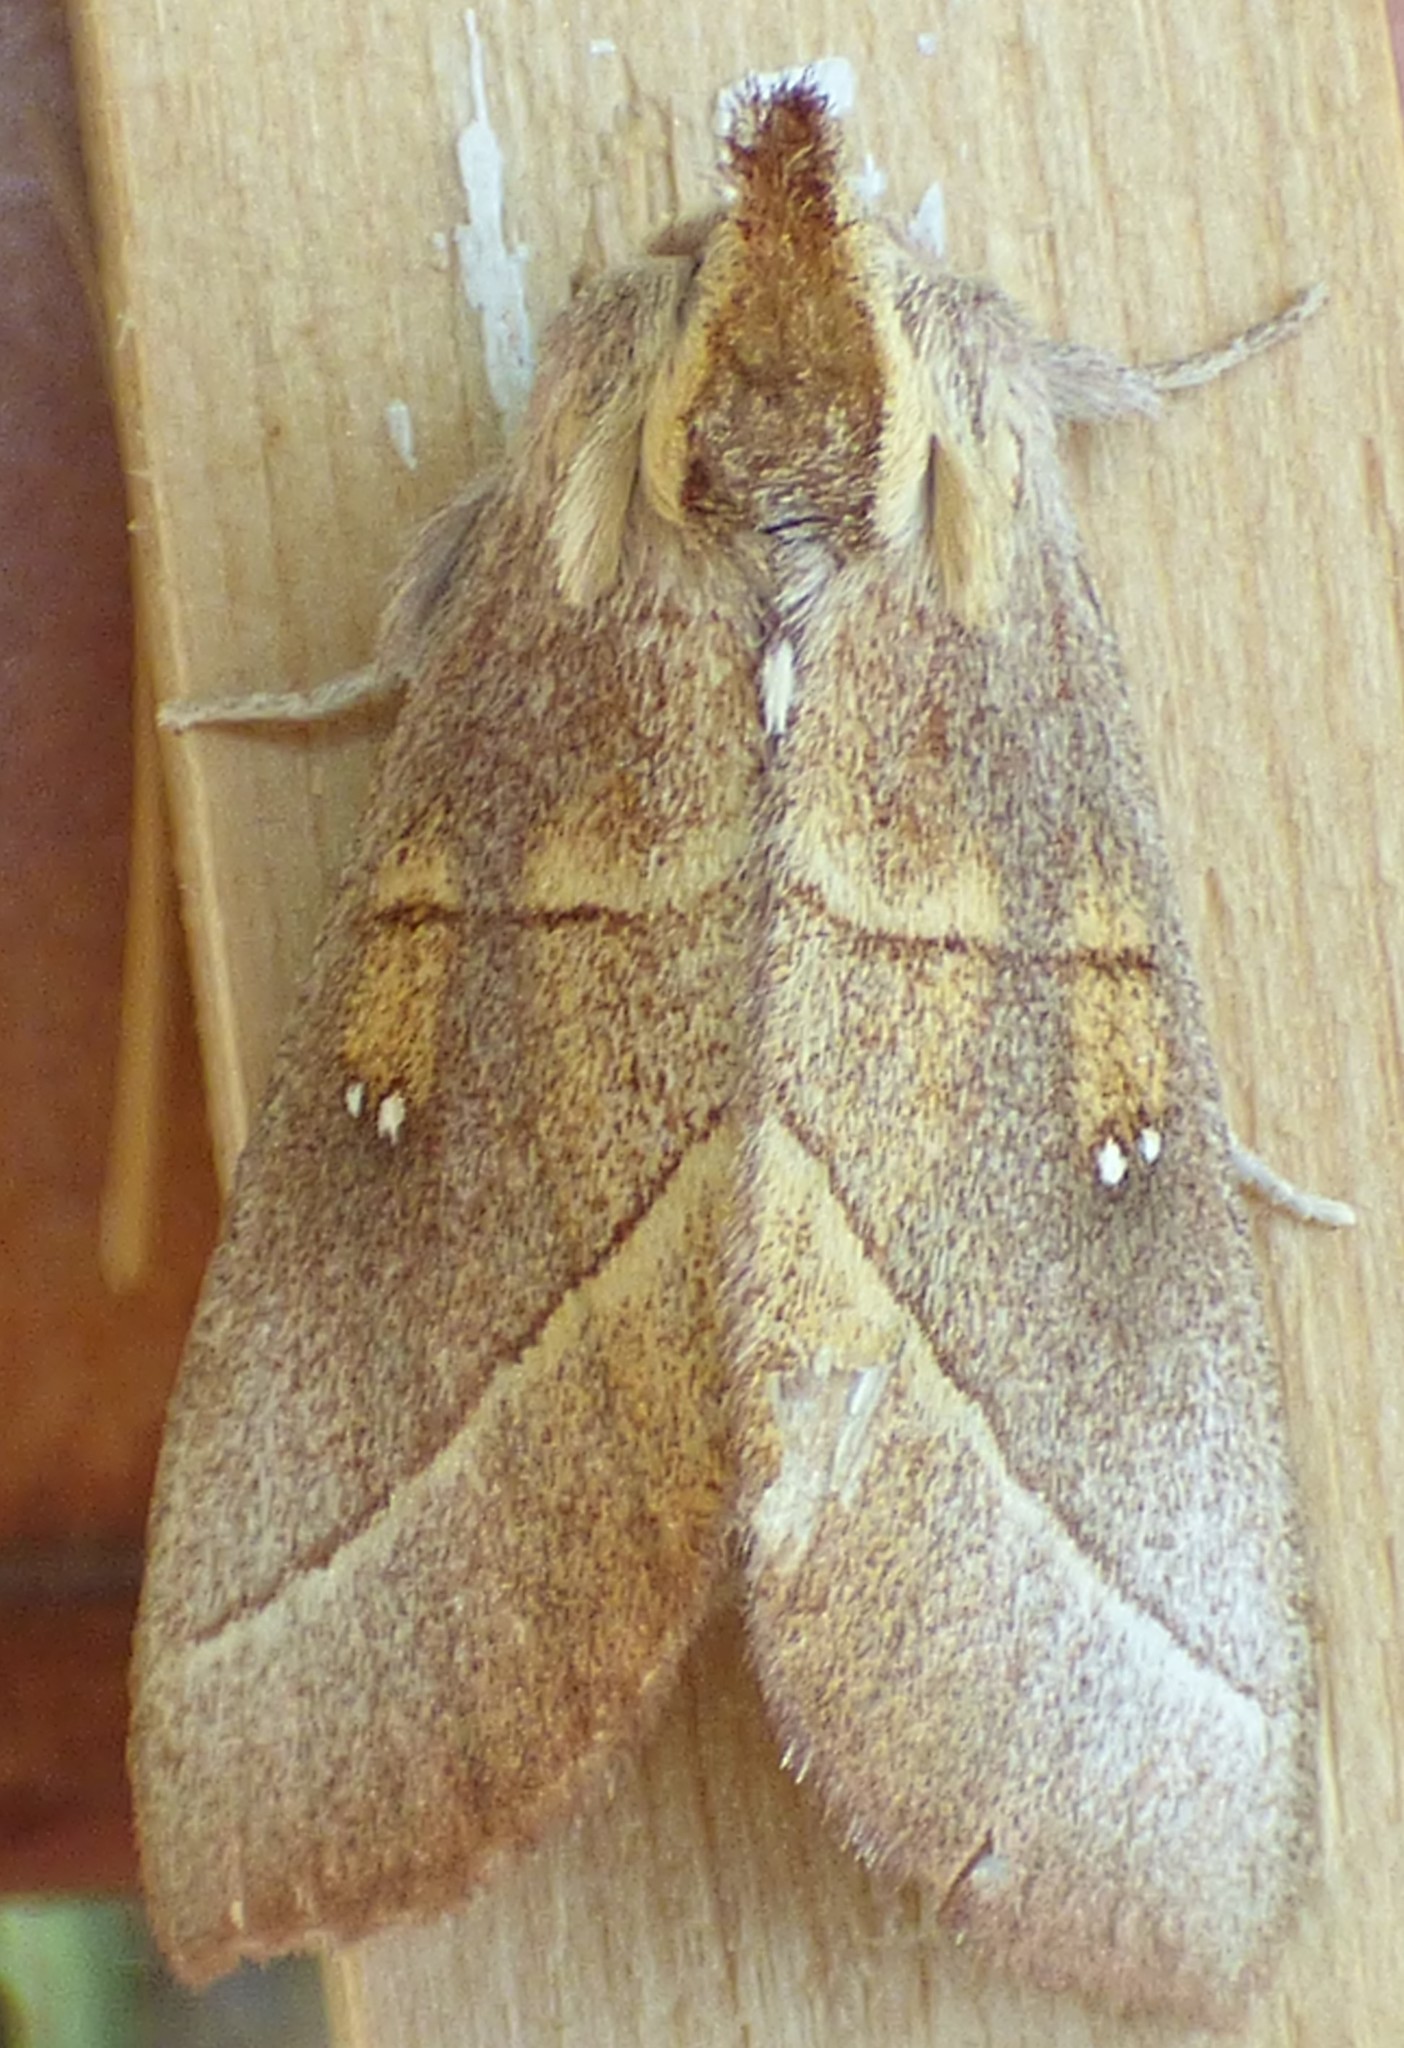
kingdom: Animalia
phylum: Arthropoda
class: Insecta
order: Lepidoptera
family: Notodontidae
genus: Nadata
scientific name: Nadata gibbosa
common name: White-dotted prominent
